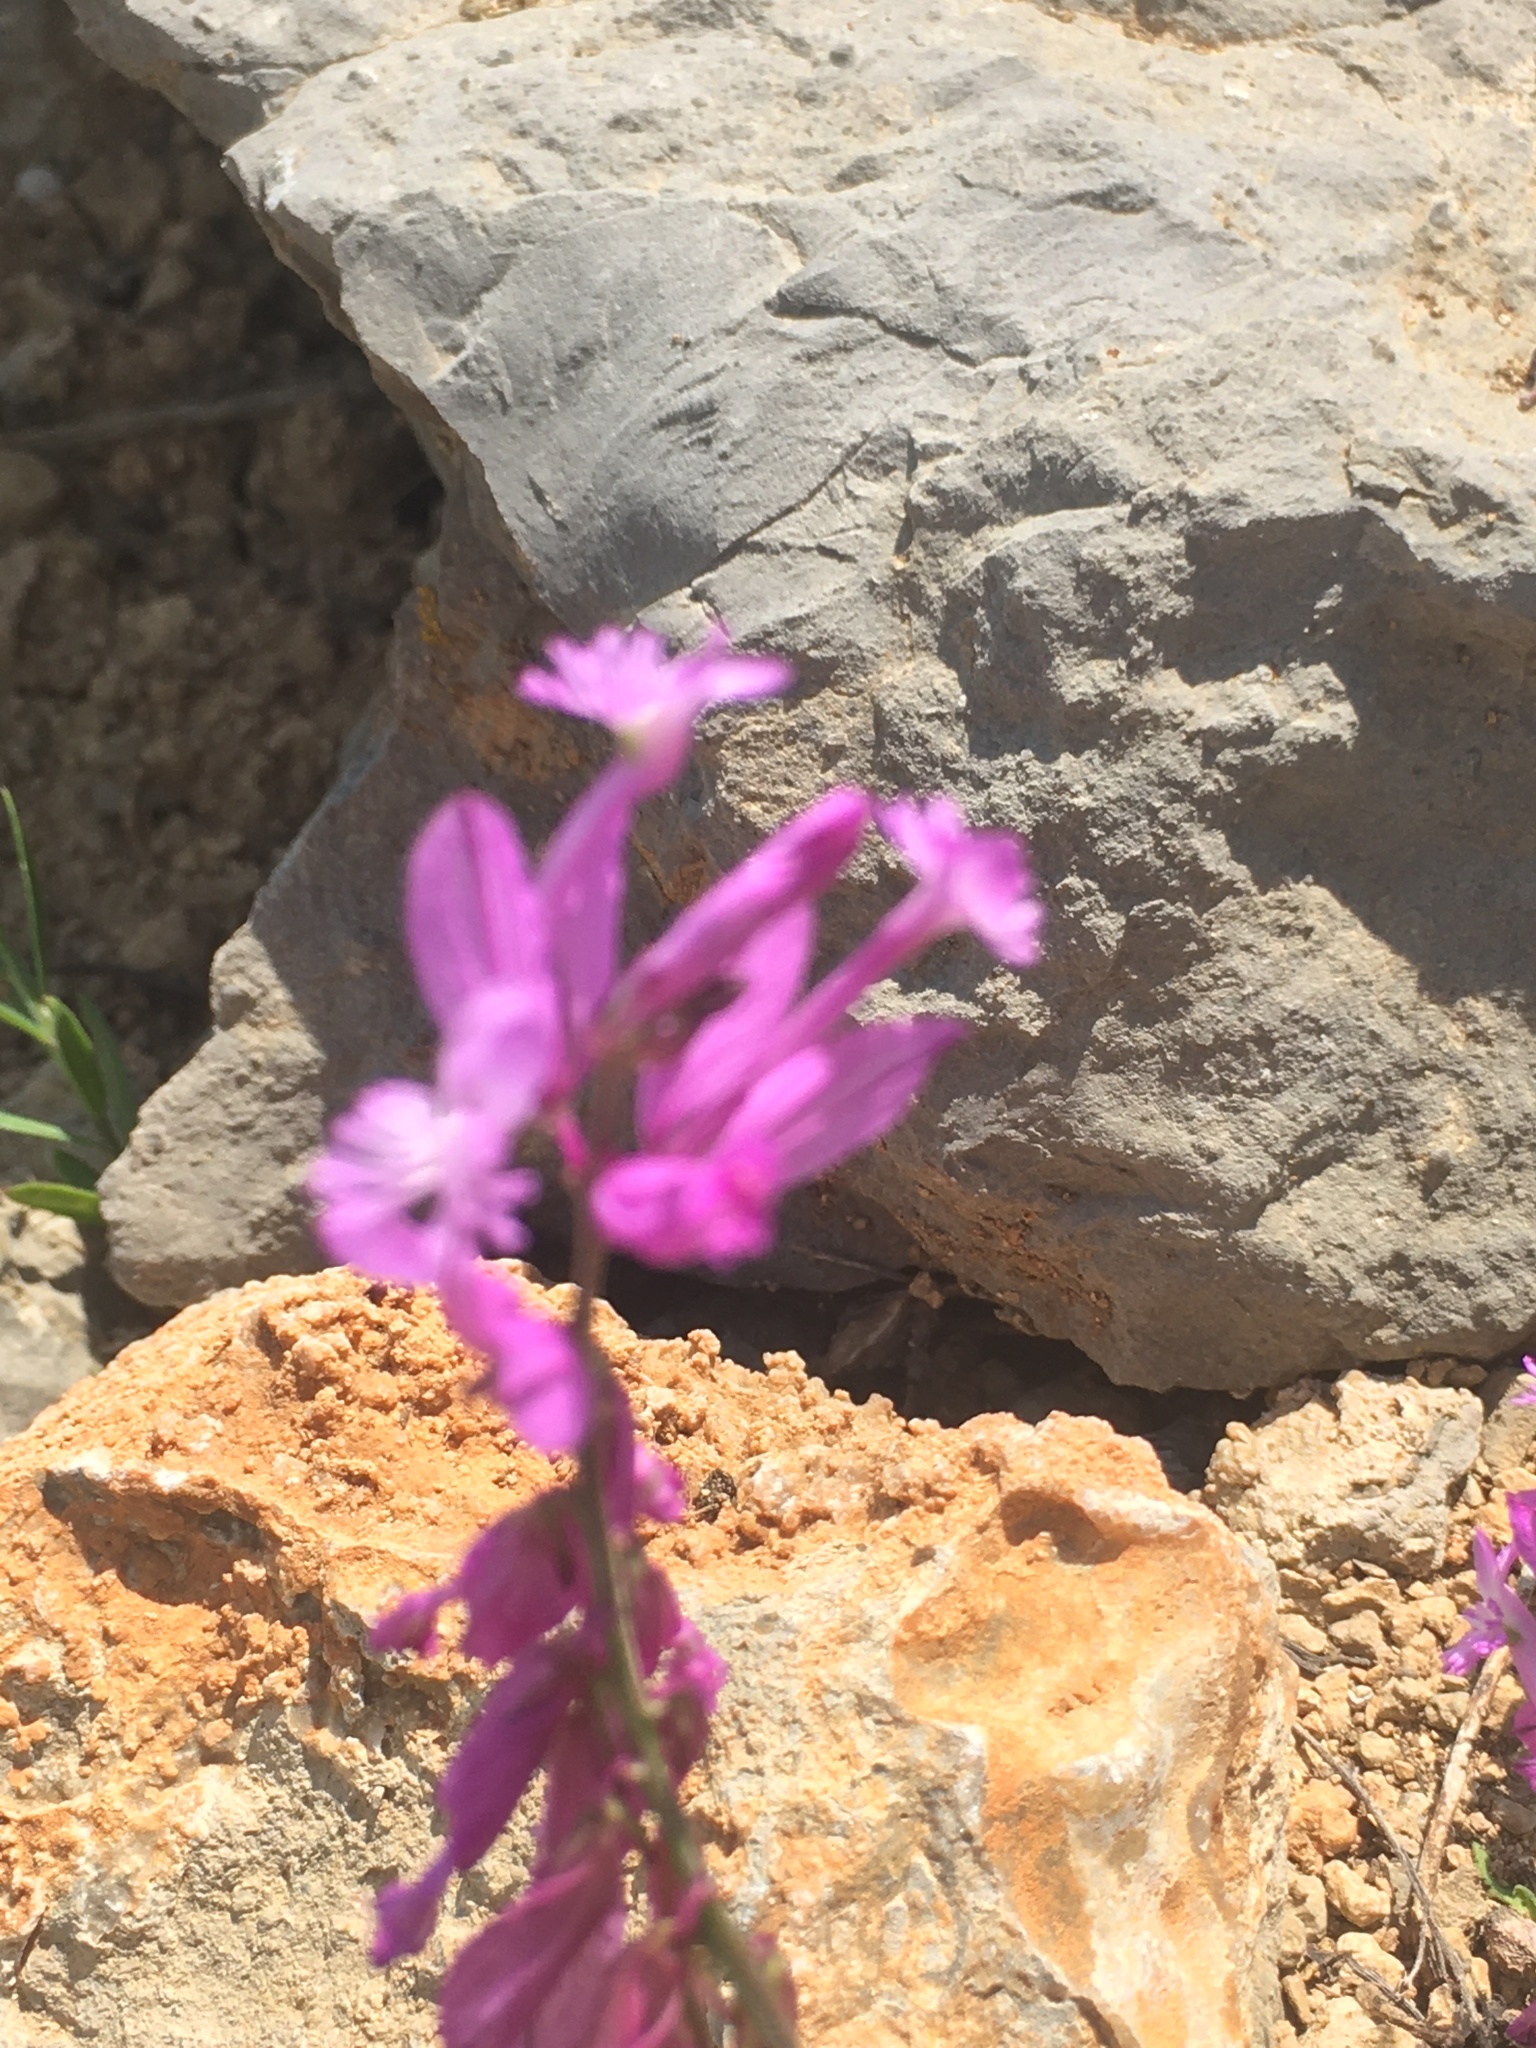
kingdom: Plantae
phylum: Tracheophyta
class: Magnoliopsida
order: Fabales
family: Polygalaceae
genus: Polygala
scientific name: Polygala major
